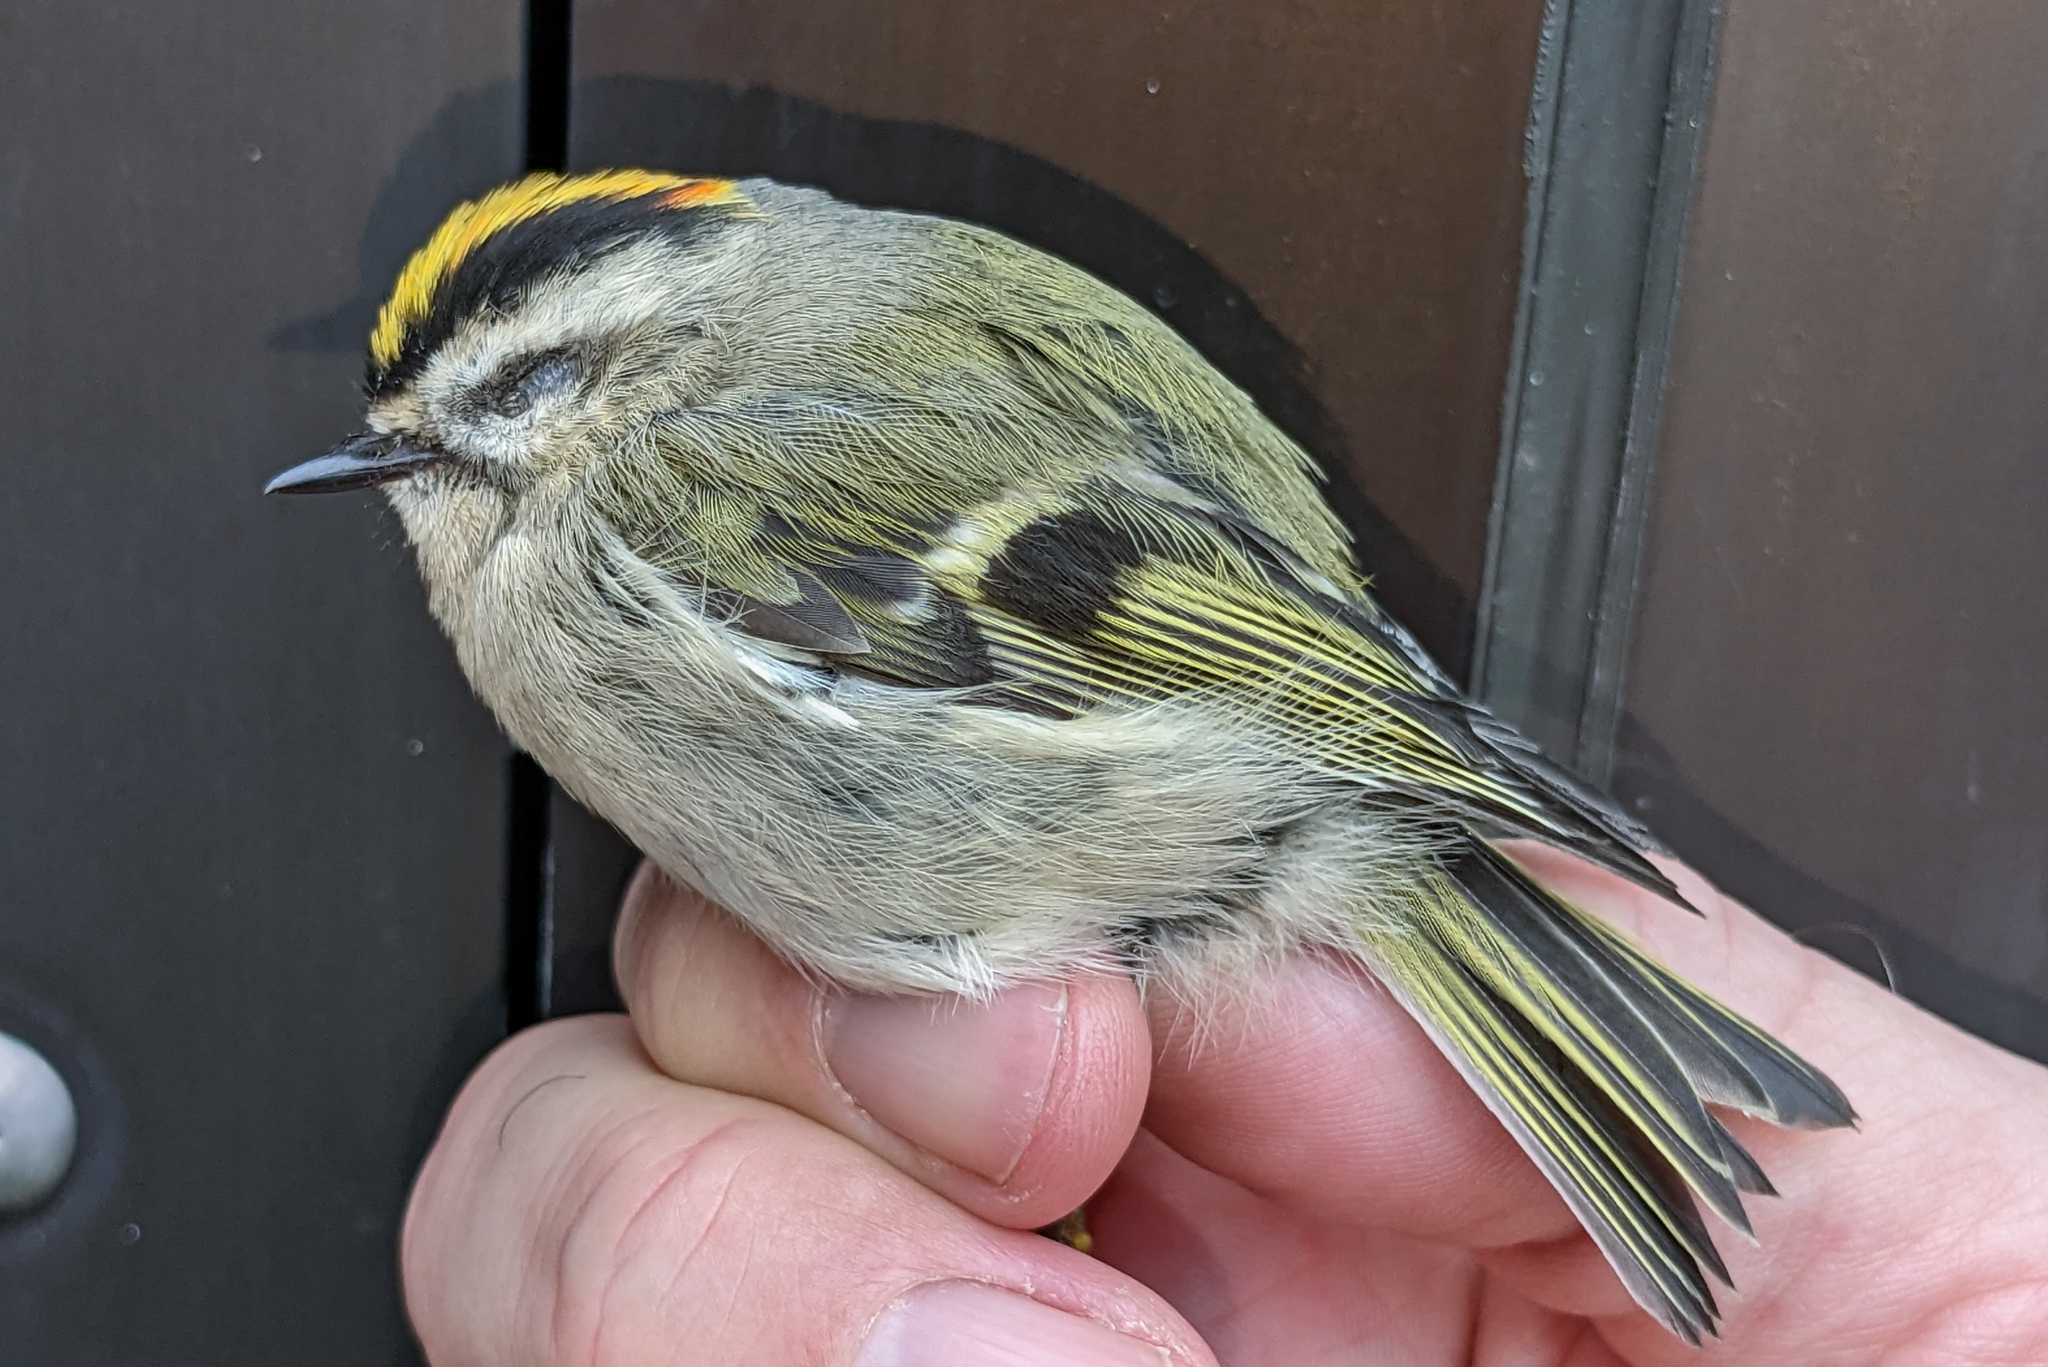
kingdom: Animalia
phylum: Chordata
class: Aves
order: Passeriformes
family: Regulidae
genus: Regulus
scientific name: Regulus satrapa
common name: Golden-crowned kinglet
